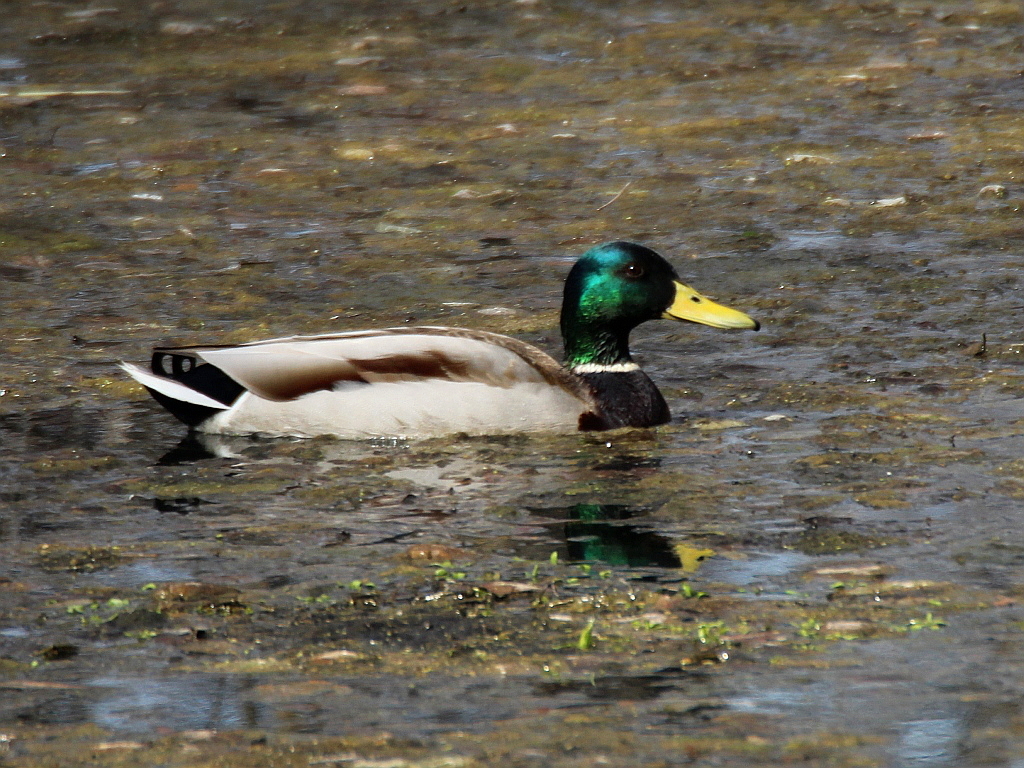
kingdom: Animalia
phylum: Chordata
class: Aves
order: Anseriformes
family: Anatidae
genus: Anas
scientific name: Anas platyrhynchos
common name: Mallard
